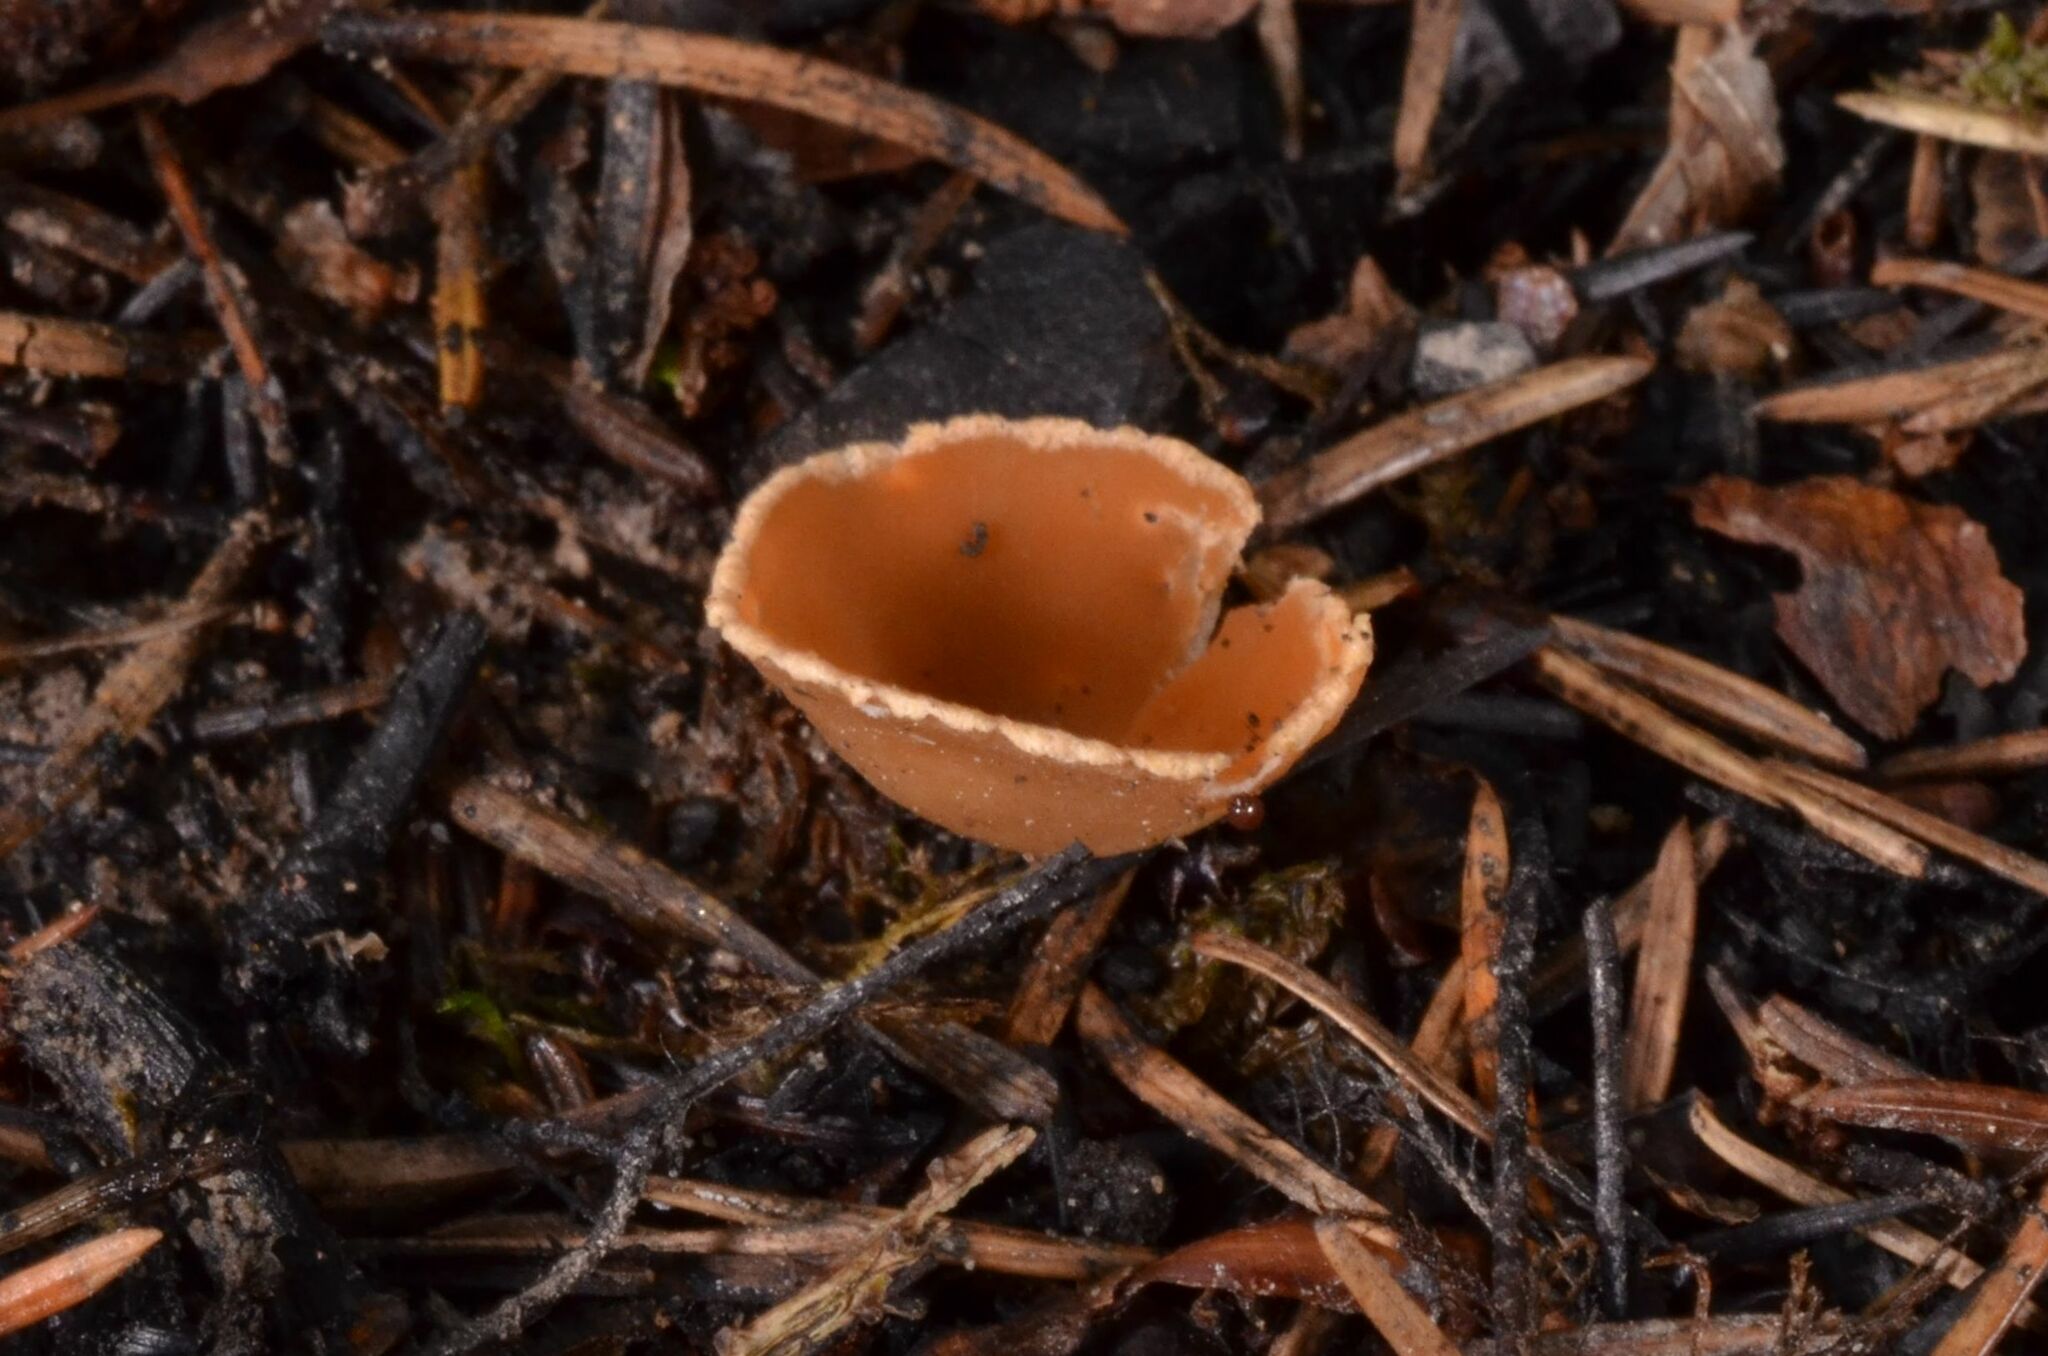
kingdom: Fungi
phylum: Ascomycota
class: Pezizomycetes
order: Pezizales
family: Pyronemataceae
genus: Geopyxis
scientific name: Geopyxis carbonaria
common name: Stalked bonfire cup
